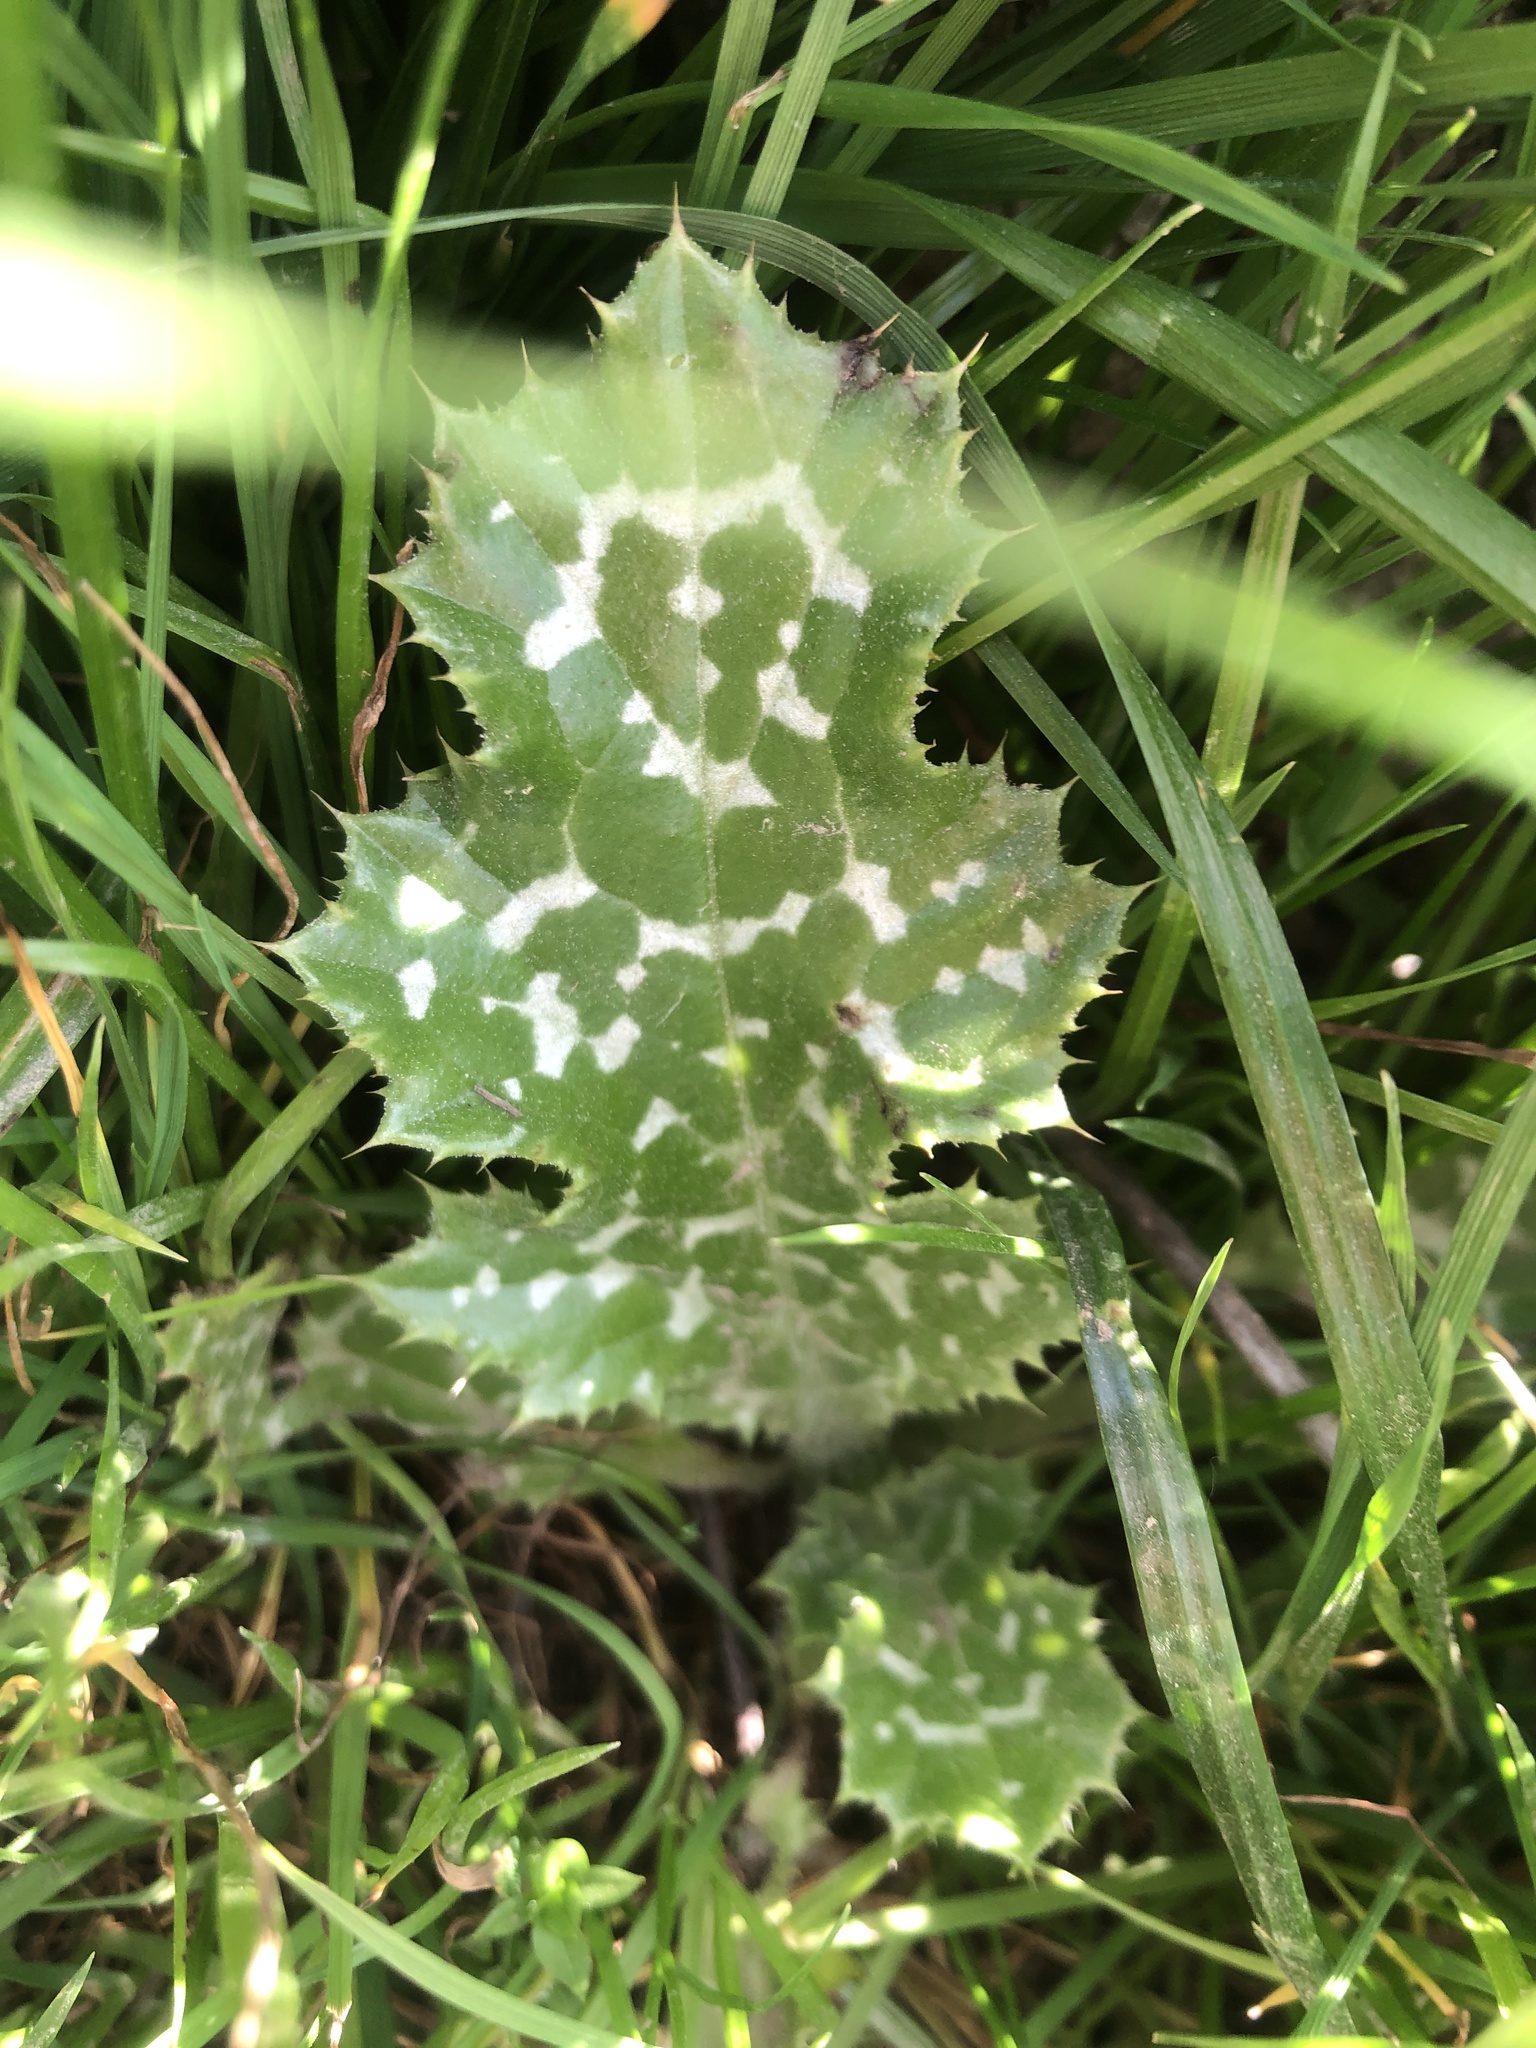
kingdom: Plantae
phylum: Tracheophyta
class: Magnoliopsida
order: Asterales
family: Asteraceae
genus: Silybum
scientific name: Silybum marianum
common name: Milk thistle
